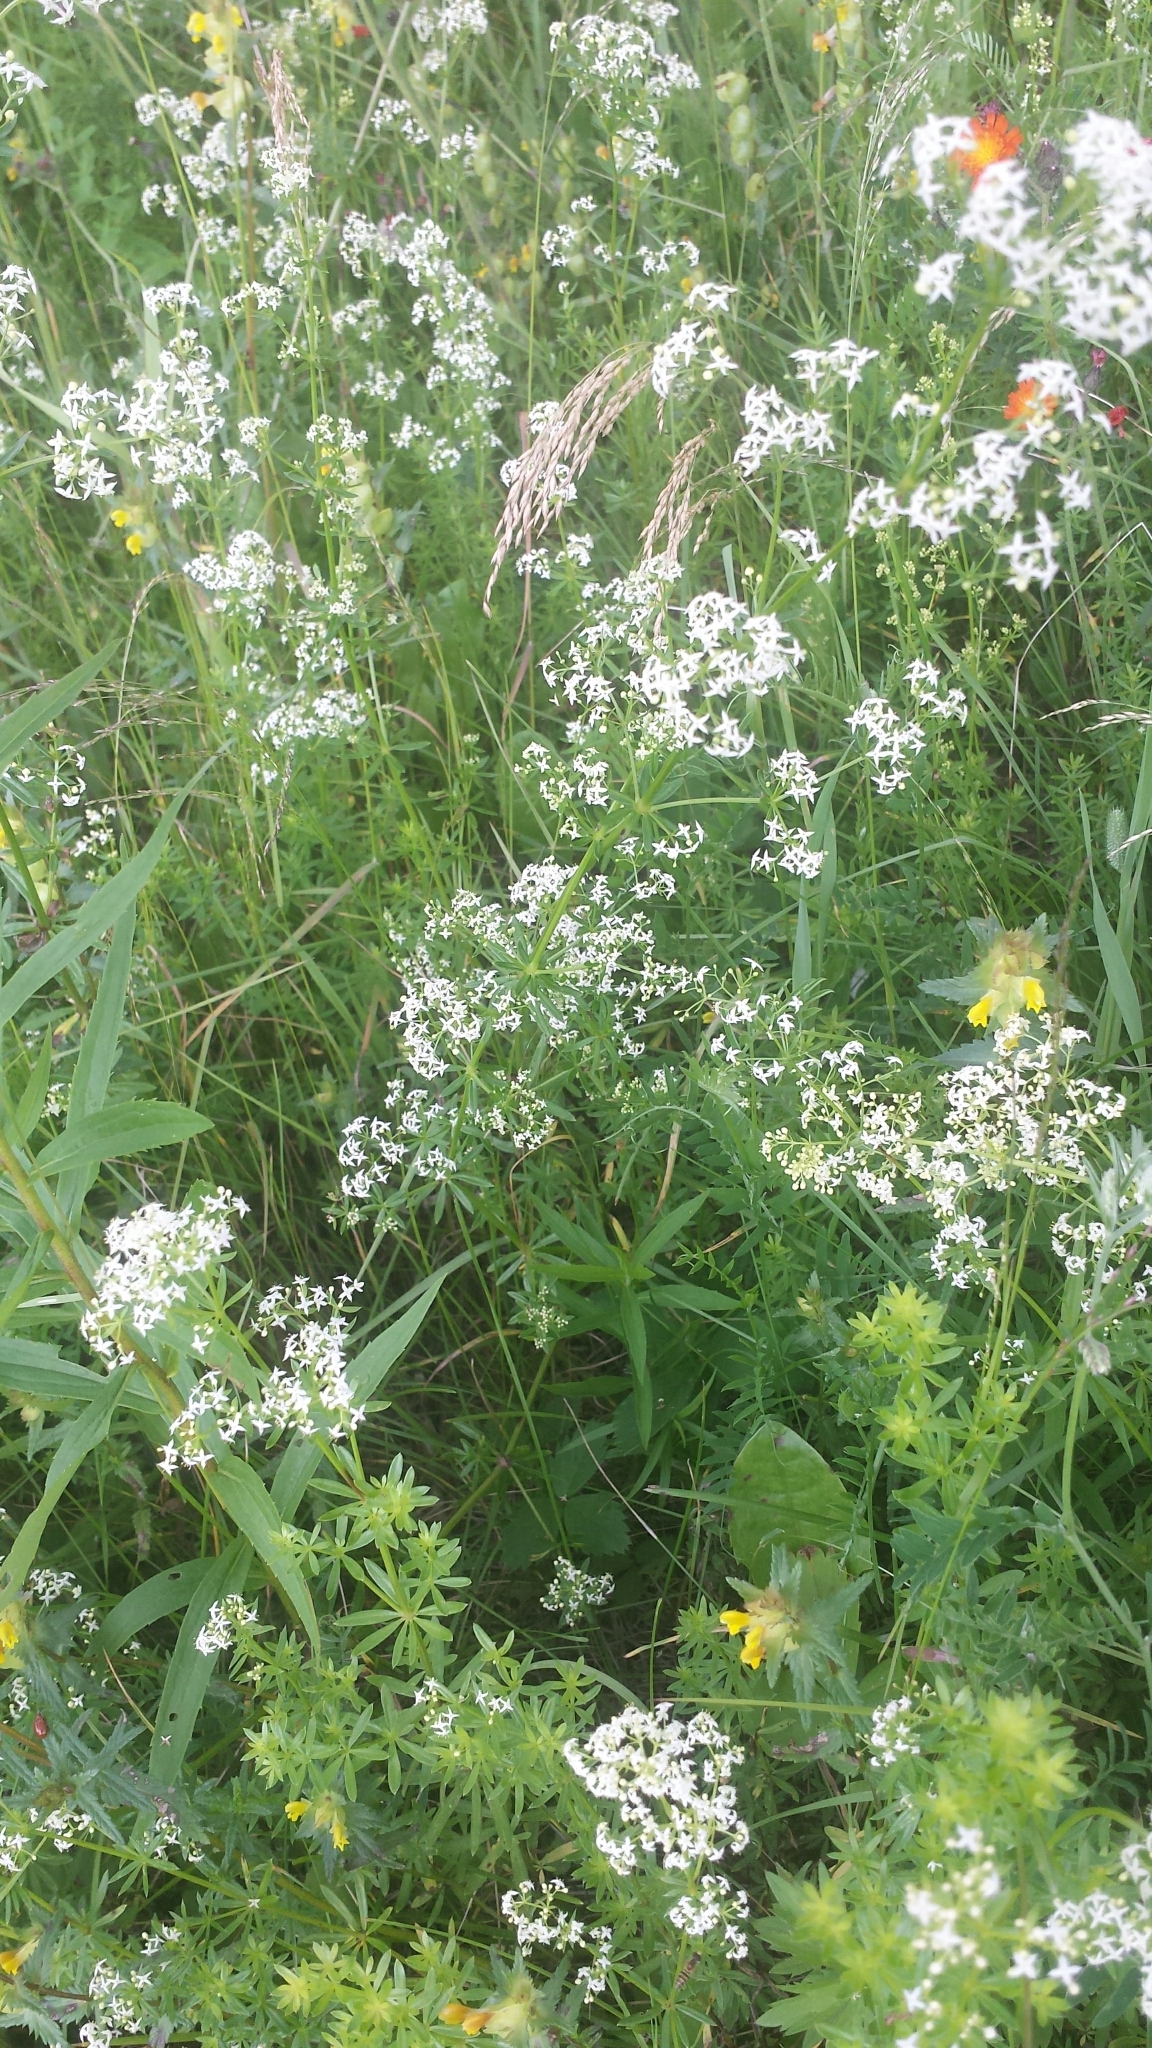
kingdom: Plantae
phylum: Tracheophyta
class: Magnoliopsida
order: Gentianales
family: Rubiaceae
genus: Galium
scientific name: Galium mollugo
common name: Hedge bedstraw
